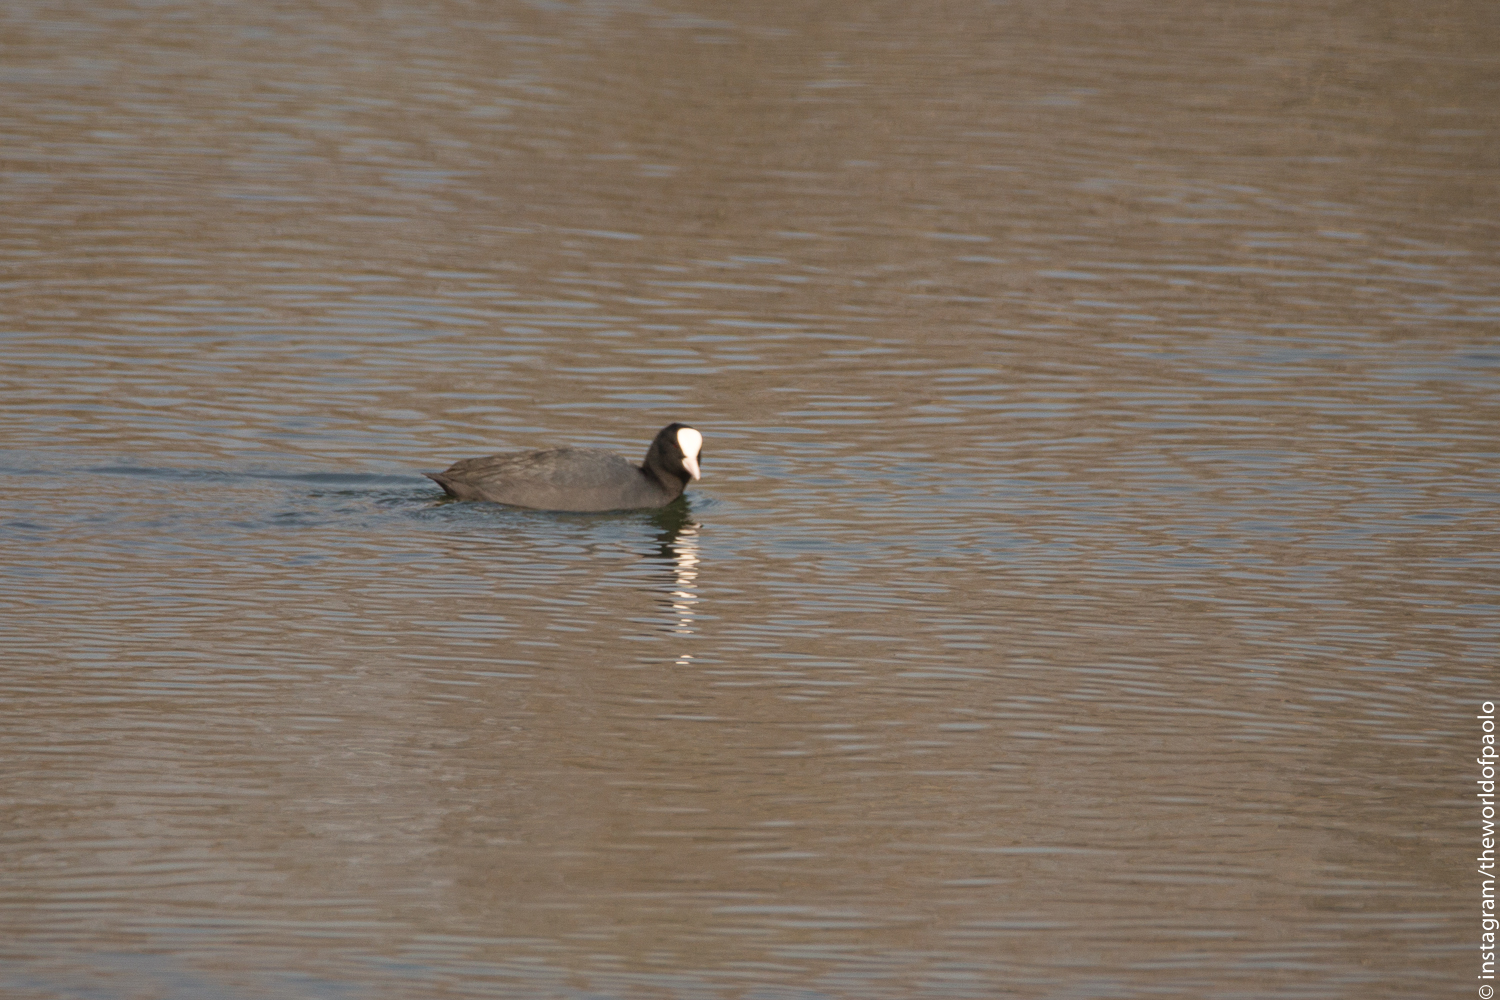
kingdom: Animalia
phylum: Chordata
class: Aves
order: Gruiformes
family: Rallidae
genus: Fulica
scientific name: Fulica atra
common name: Eurasian coot
